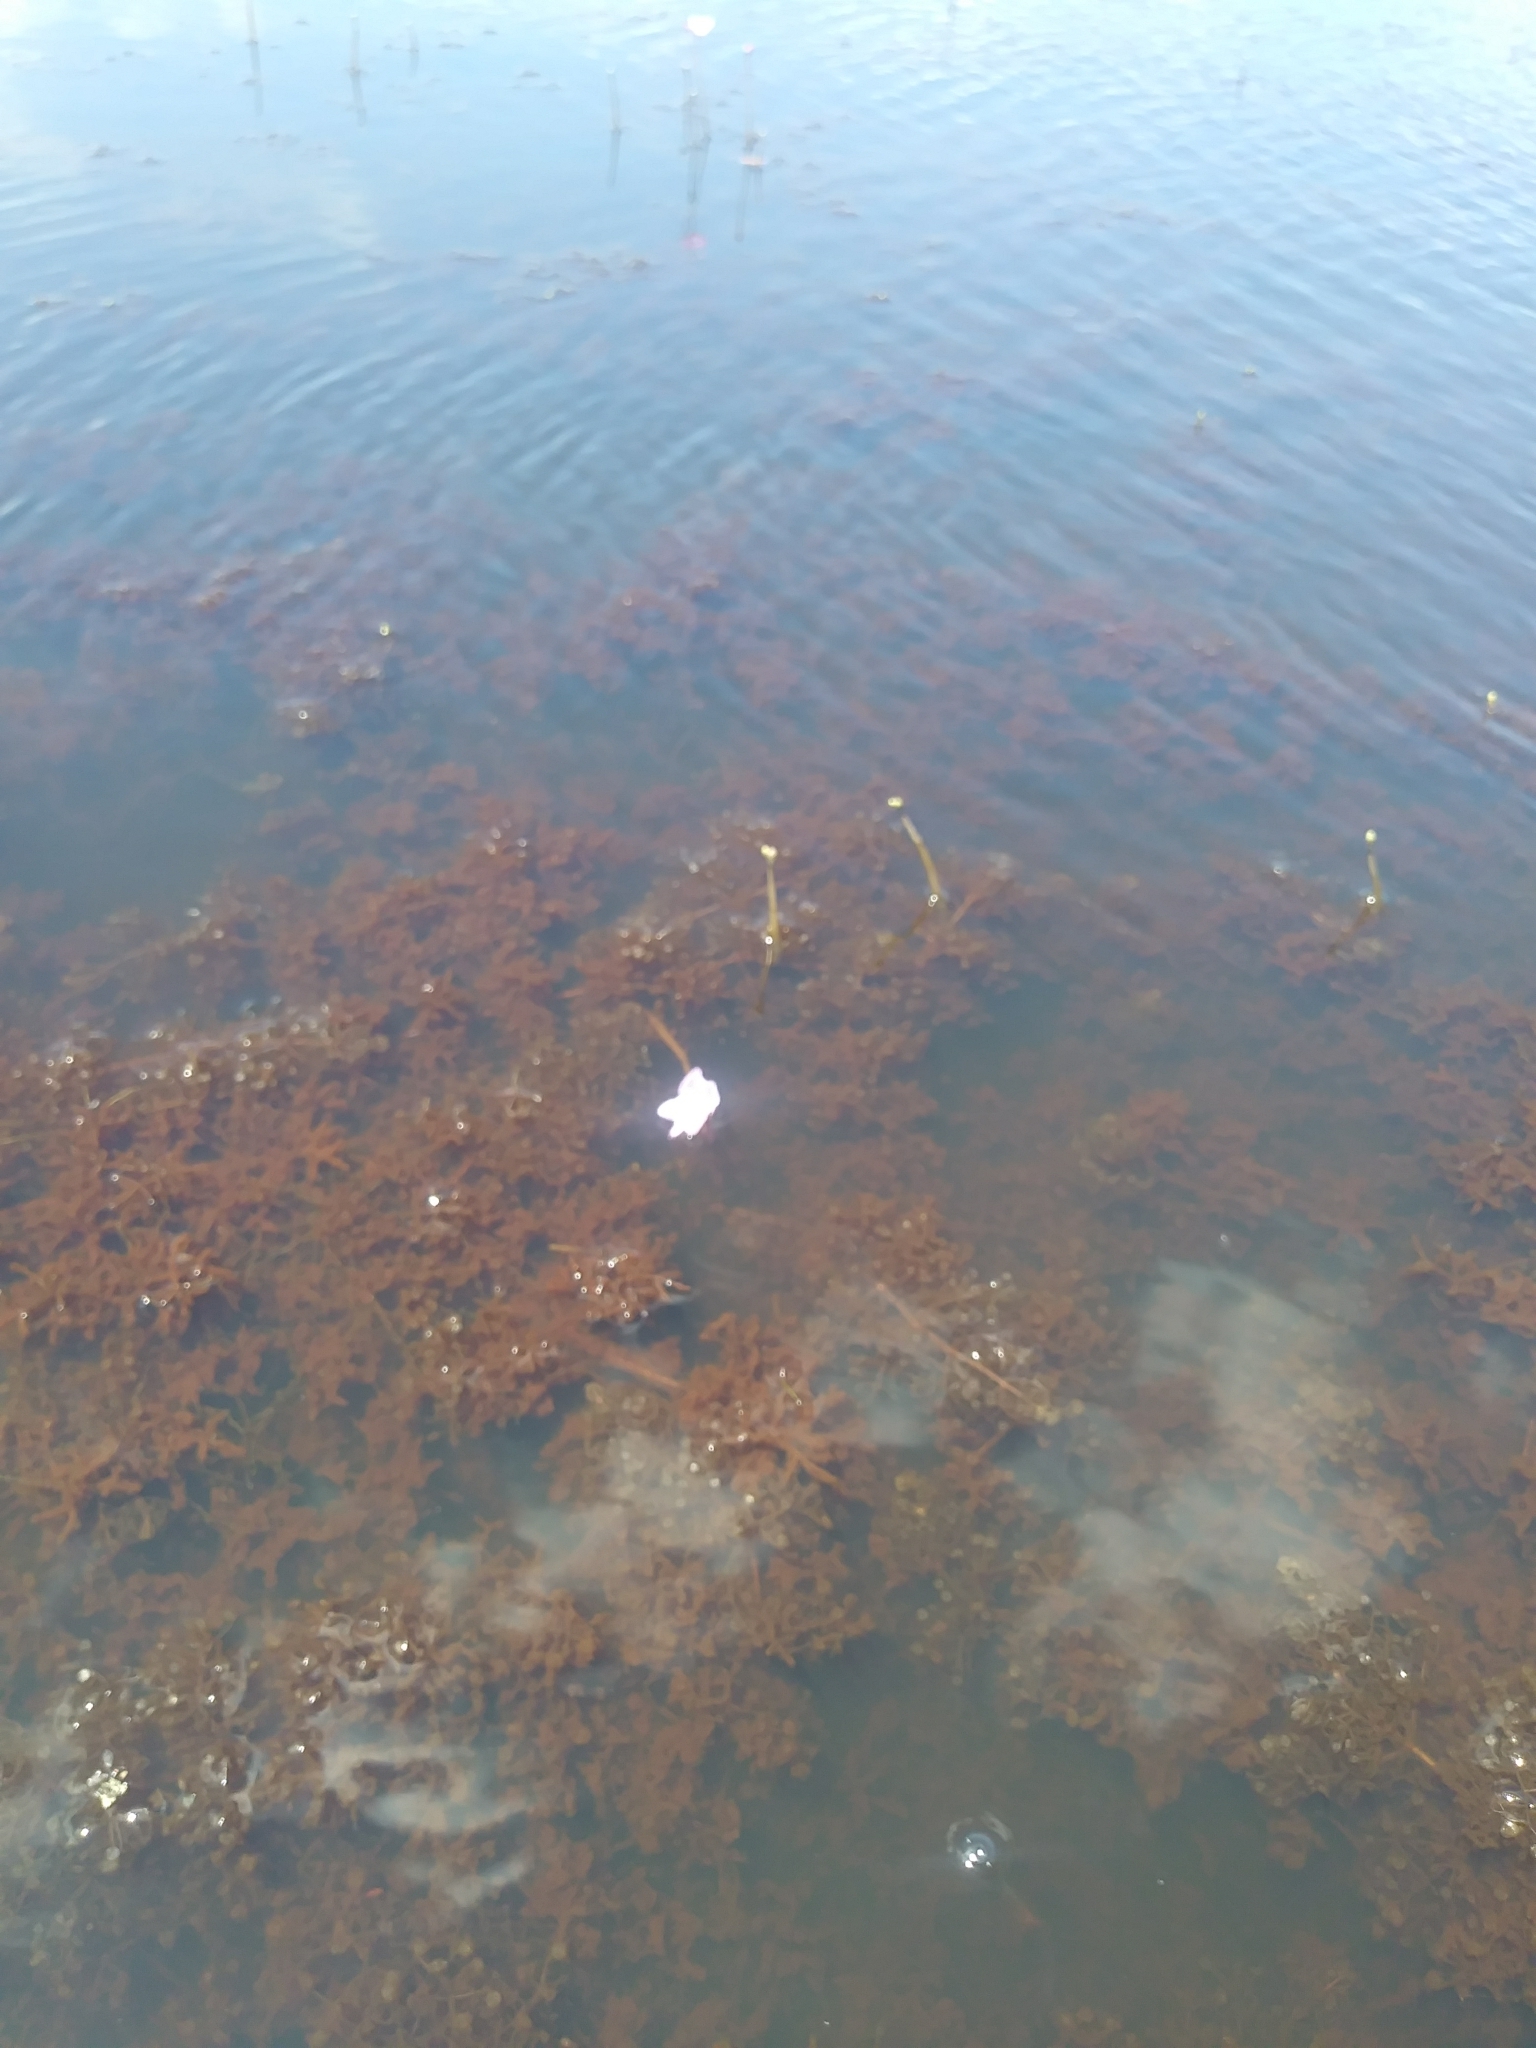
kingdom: Plantae
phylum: Tracheophyta
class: Magnoliopsida
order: Lamiales
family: Lentibulariaceae
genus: Utricularia
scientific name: Utricularia purpurea
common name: Eastern purple bladderwort
